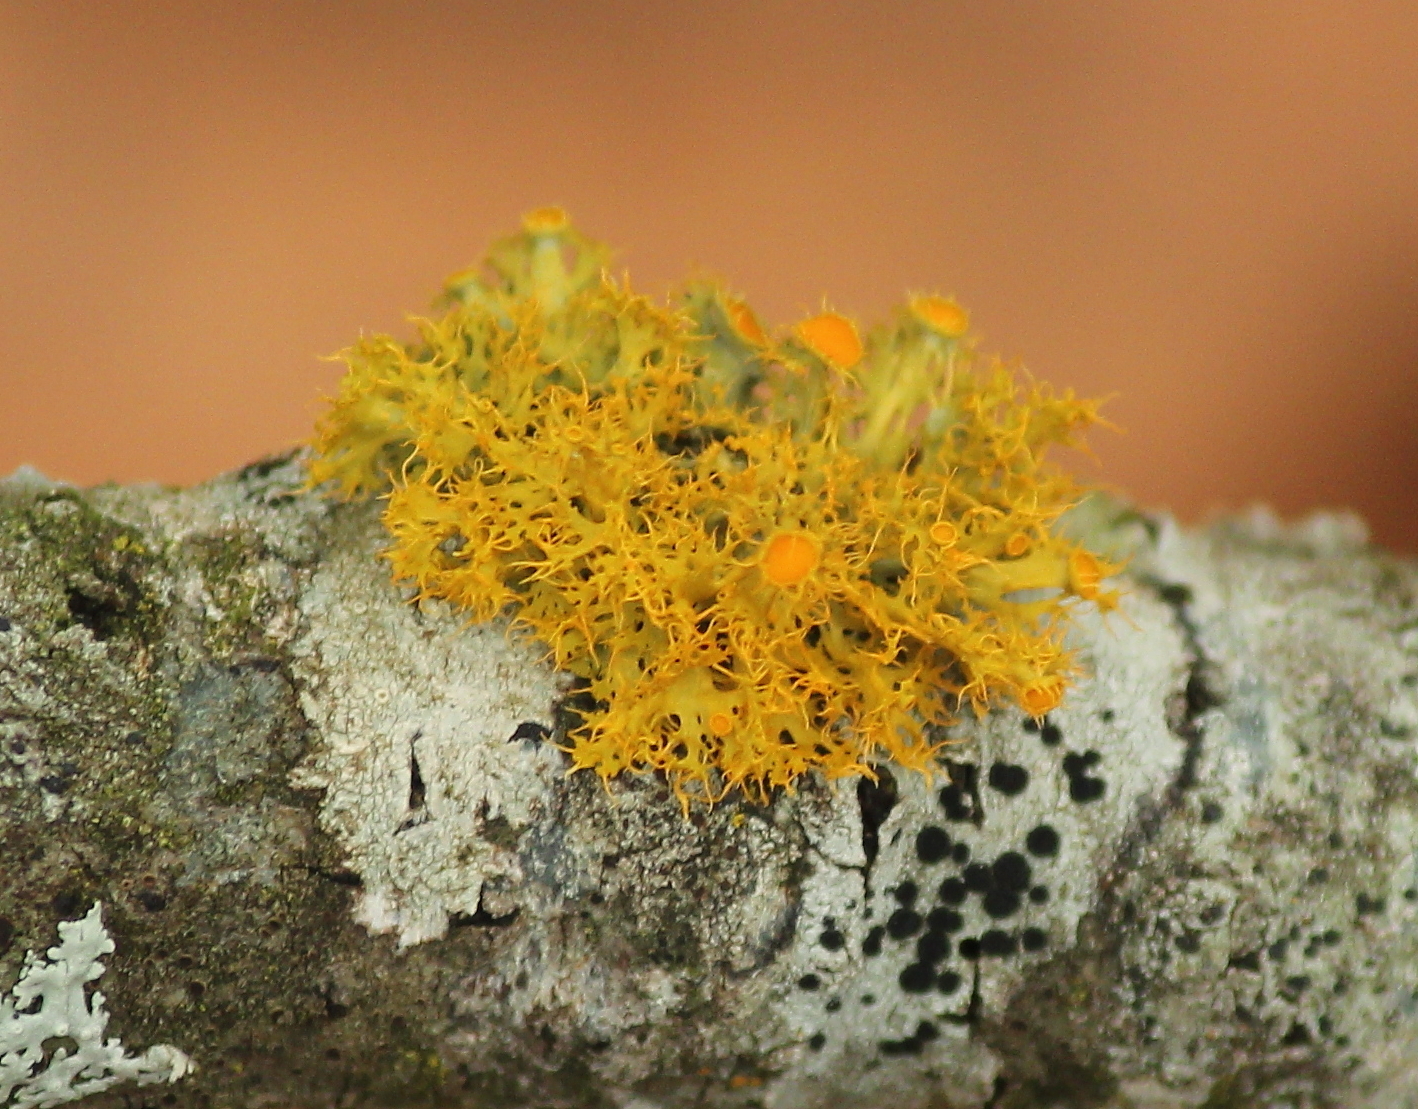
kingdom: Fungi
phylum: Ascomycota
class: Lecanoromycetes
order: Teloschistales
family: Teloschistaceae
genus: Niorma
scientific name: Niorma chrysophthalma
